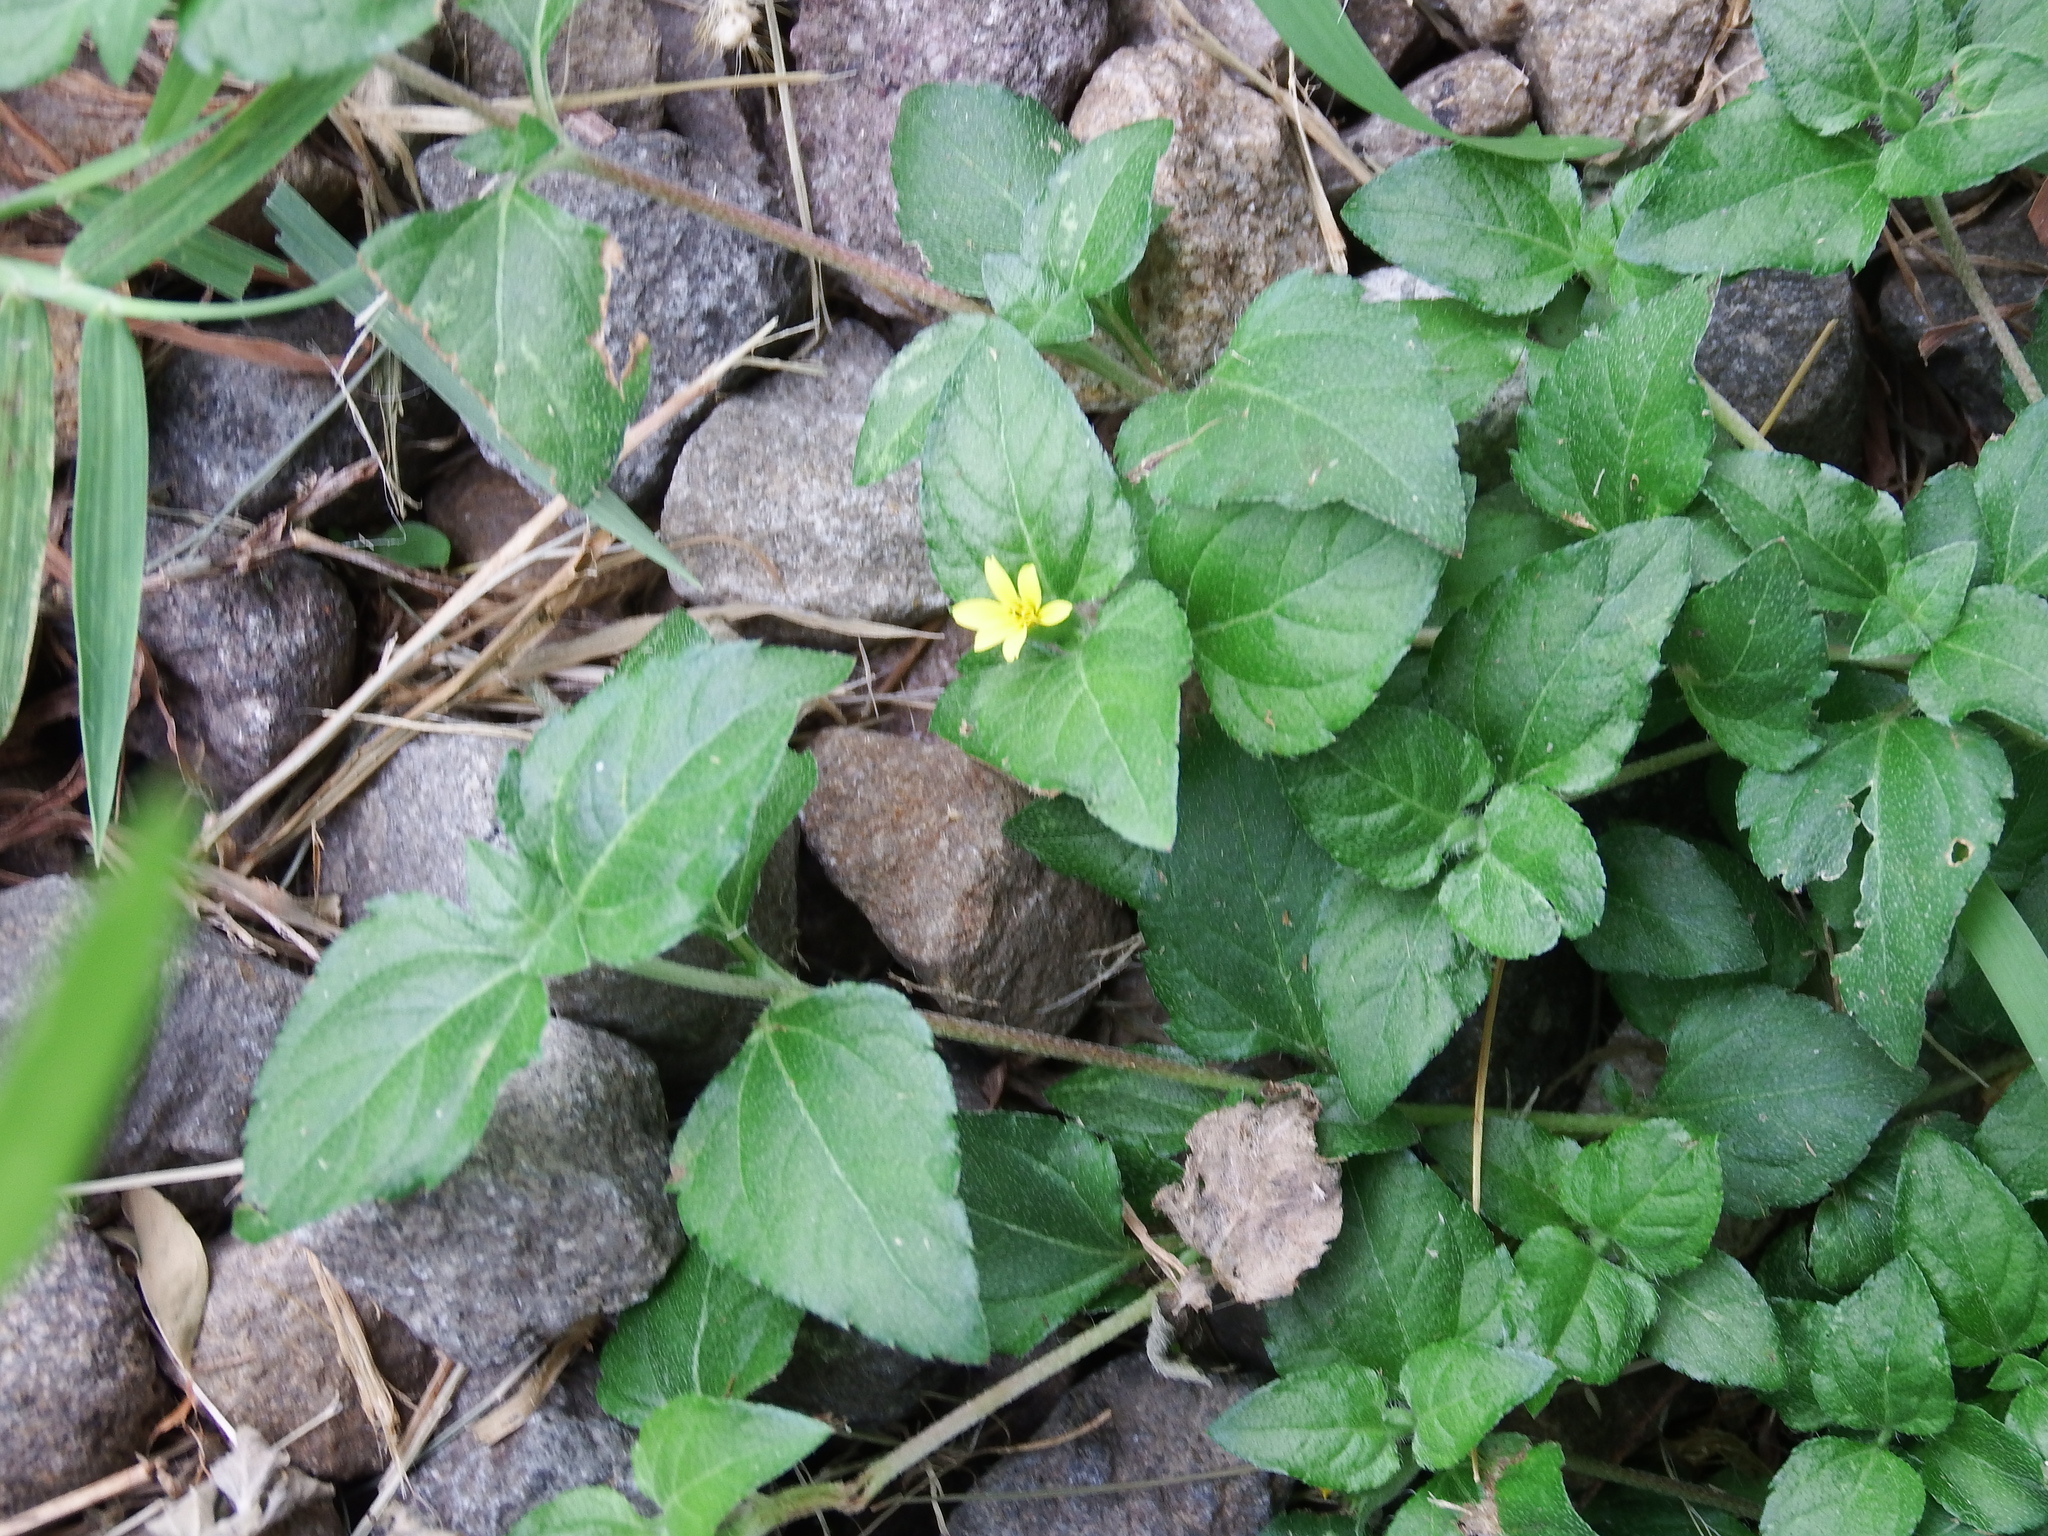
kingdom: Plantae
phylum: Tracheophyta
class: Magnoliopsida
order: Asterales
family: Asteraceae
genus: Calyptocarpus
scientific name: Calyptocarpus vialis
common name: Straggler daisy
